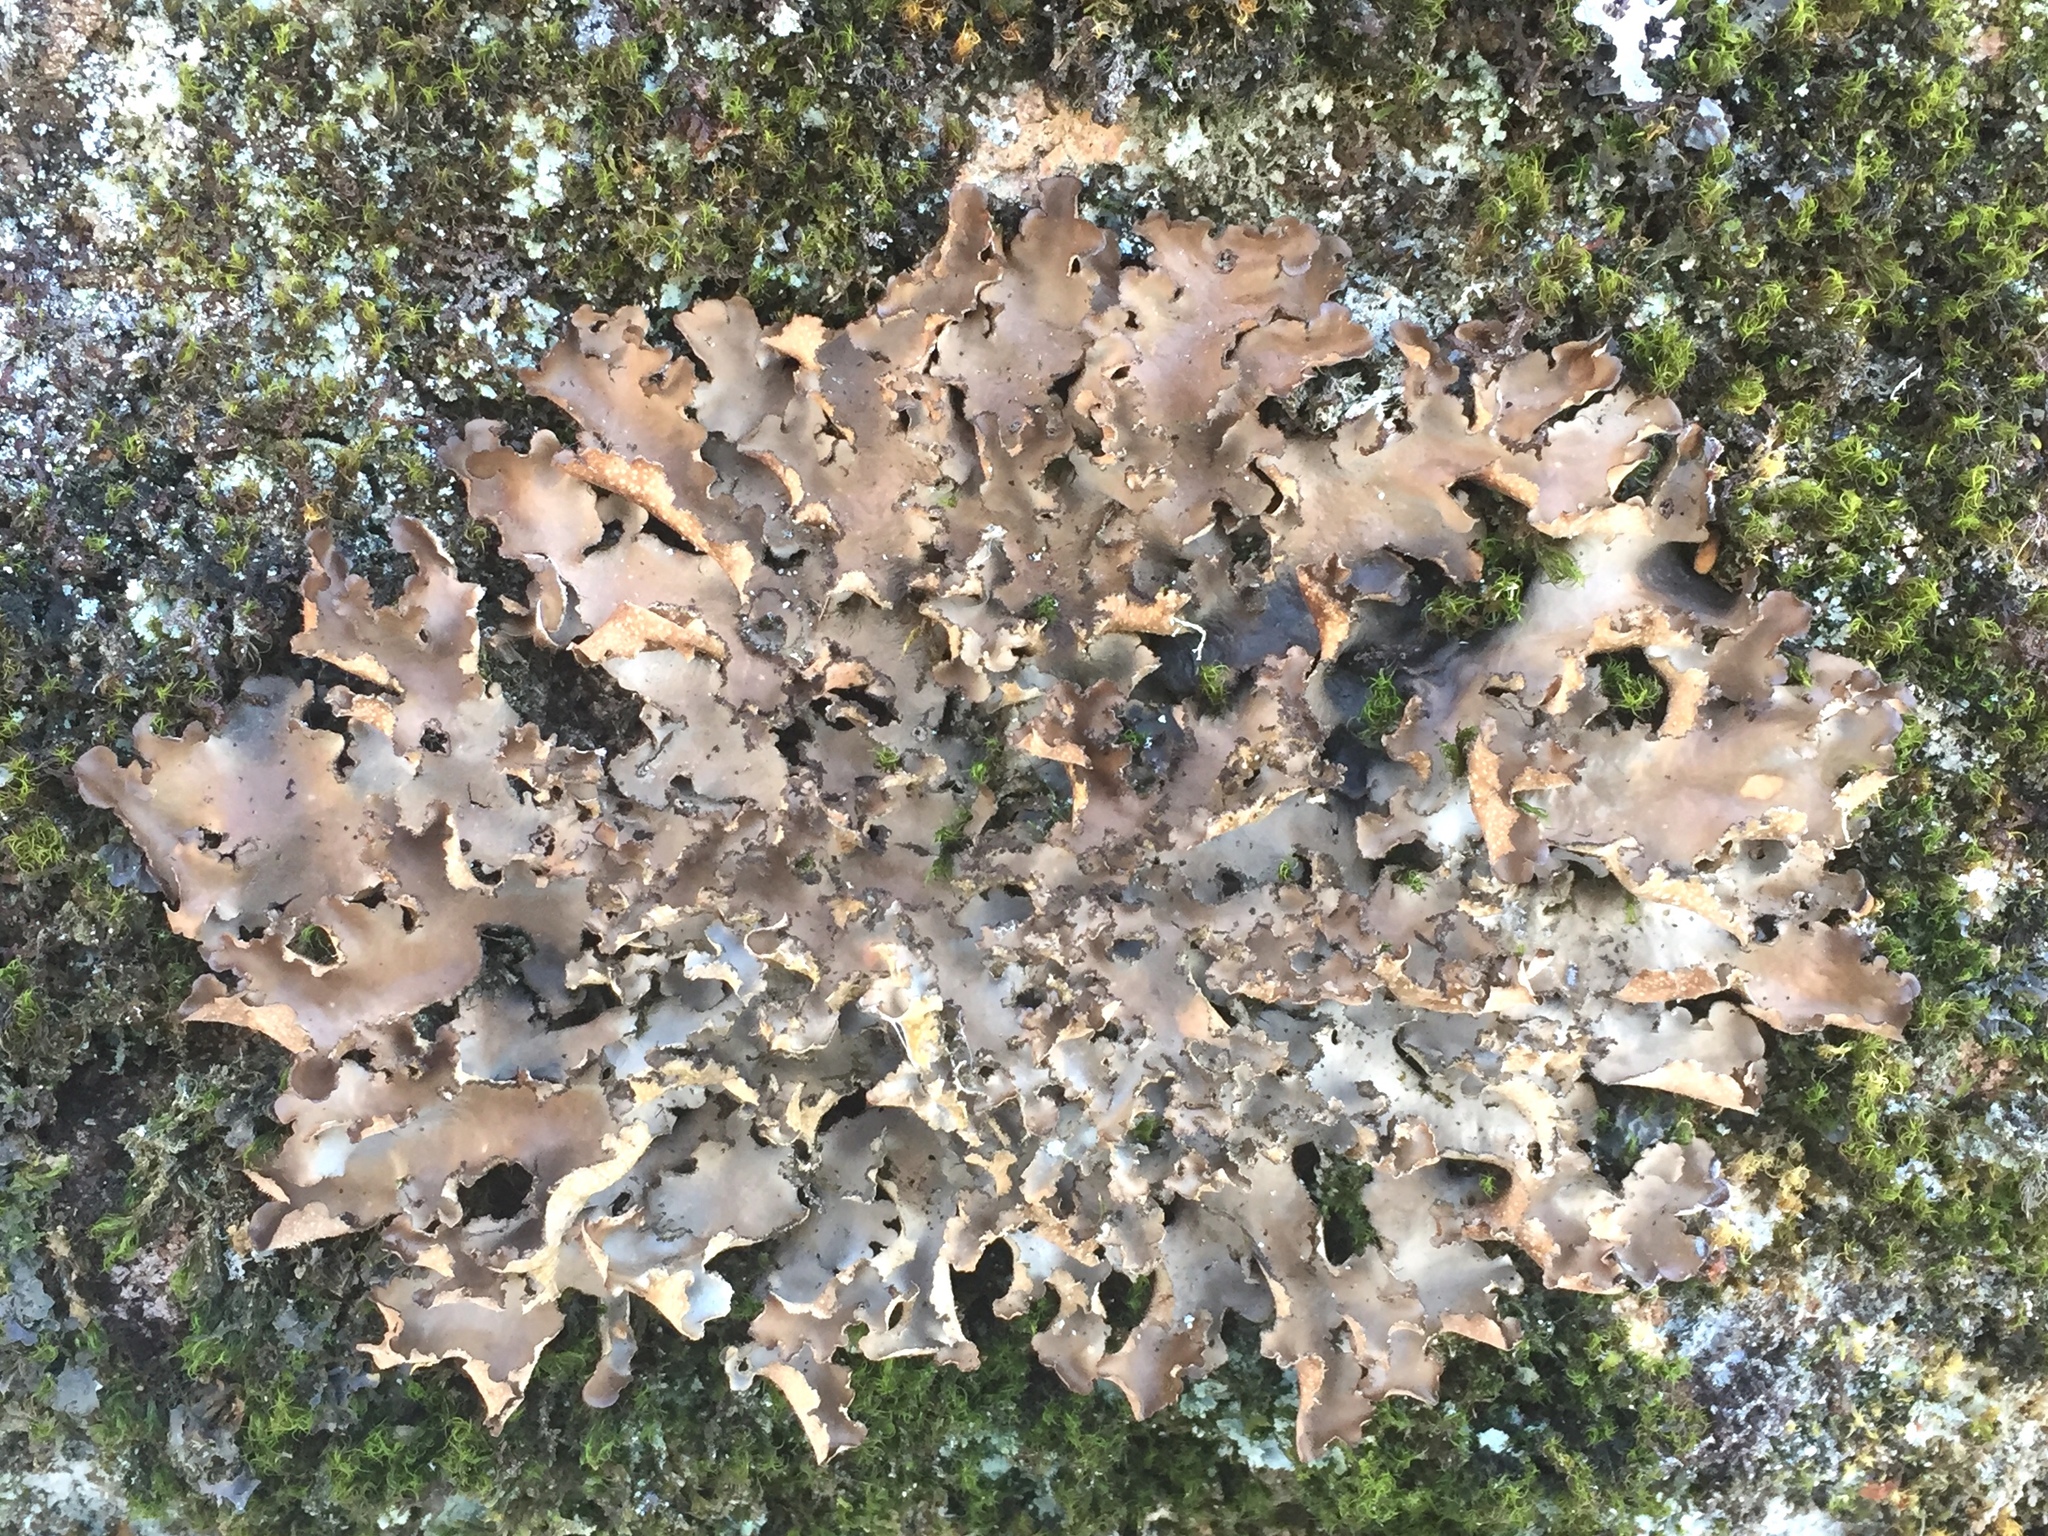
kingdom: Fungi
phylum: Ascomycota
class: Lecanoromycetes
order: Peltigerales
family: Lobariaceae
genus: Sticta
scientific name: Sticta beauvoisii
